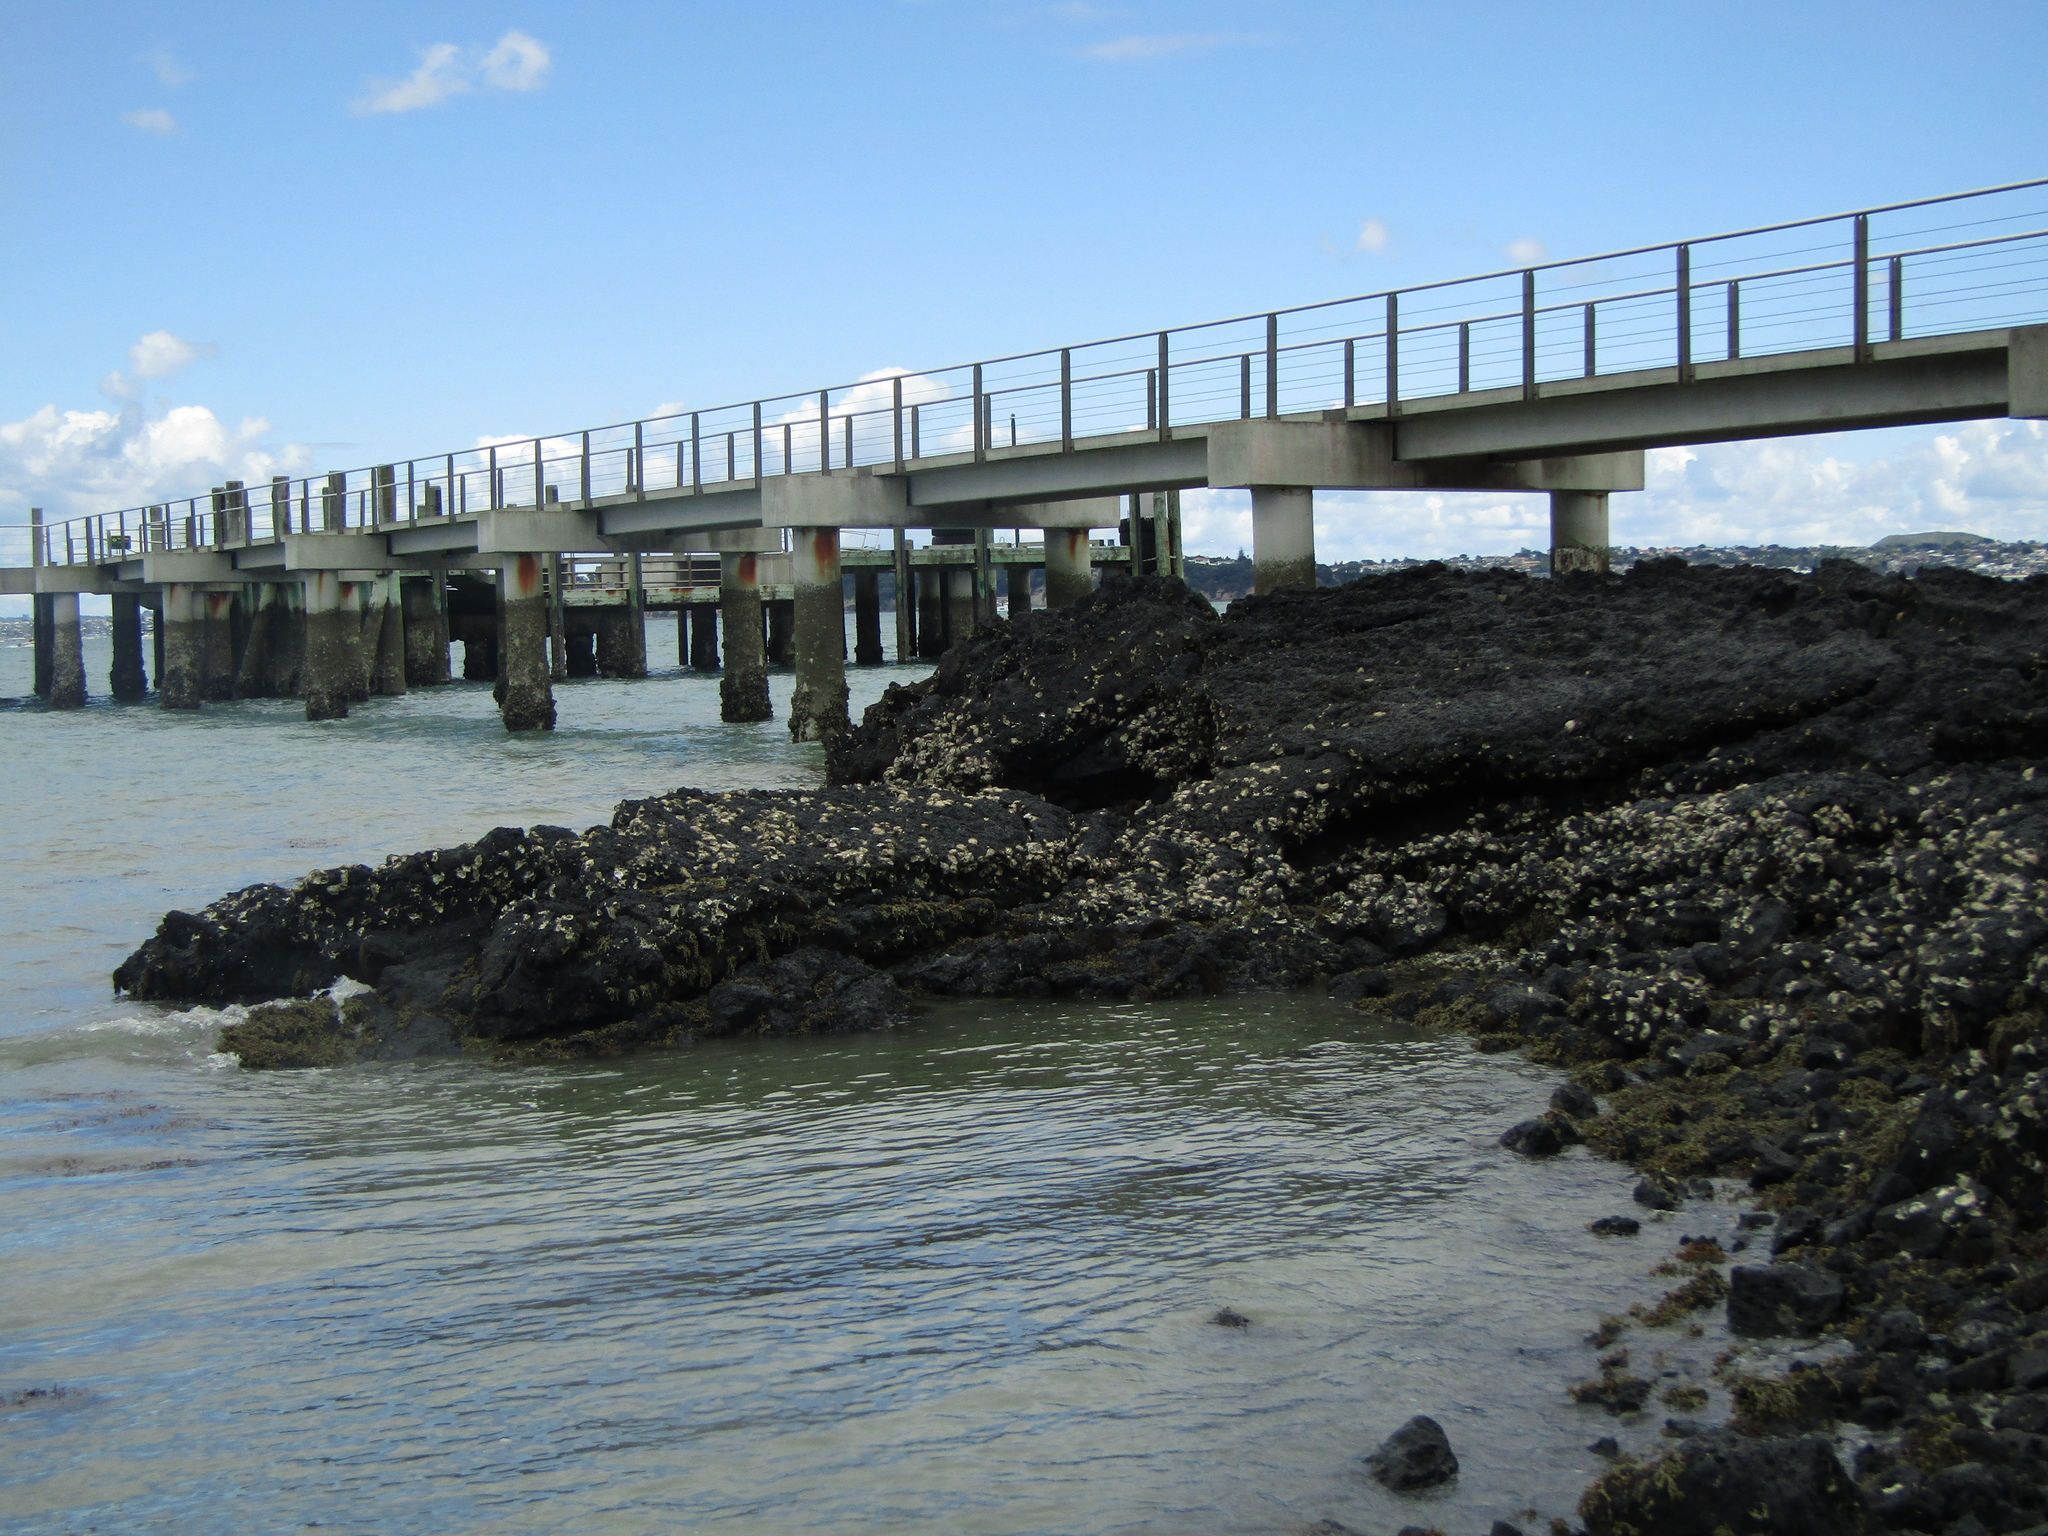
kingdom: Animalia
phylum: Mollusca
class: Bivalvia
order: Ostreida
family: Ostreidae
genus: Saccostrea
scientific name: Saccostrea glomerata
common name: Sydney cupped oyster
